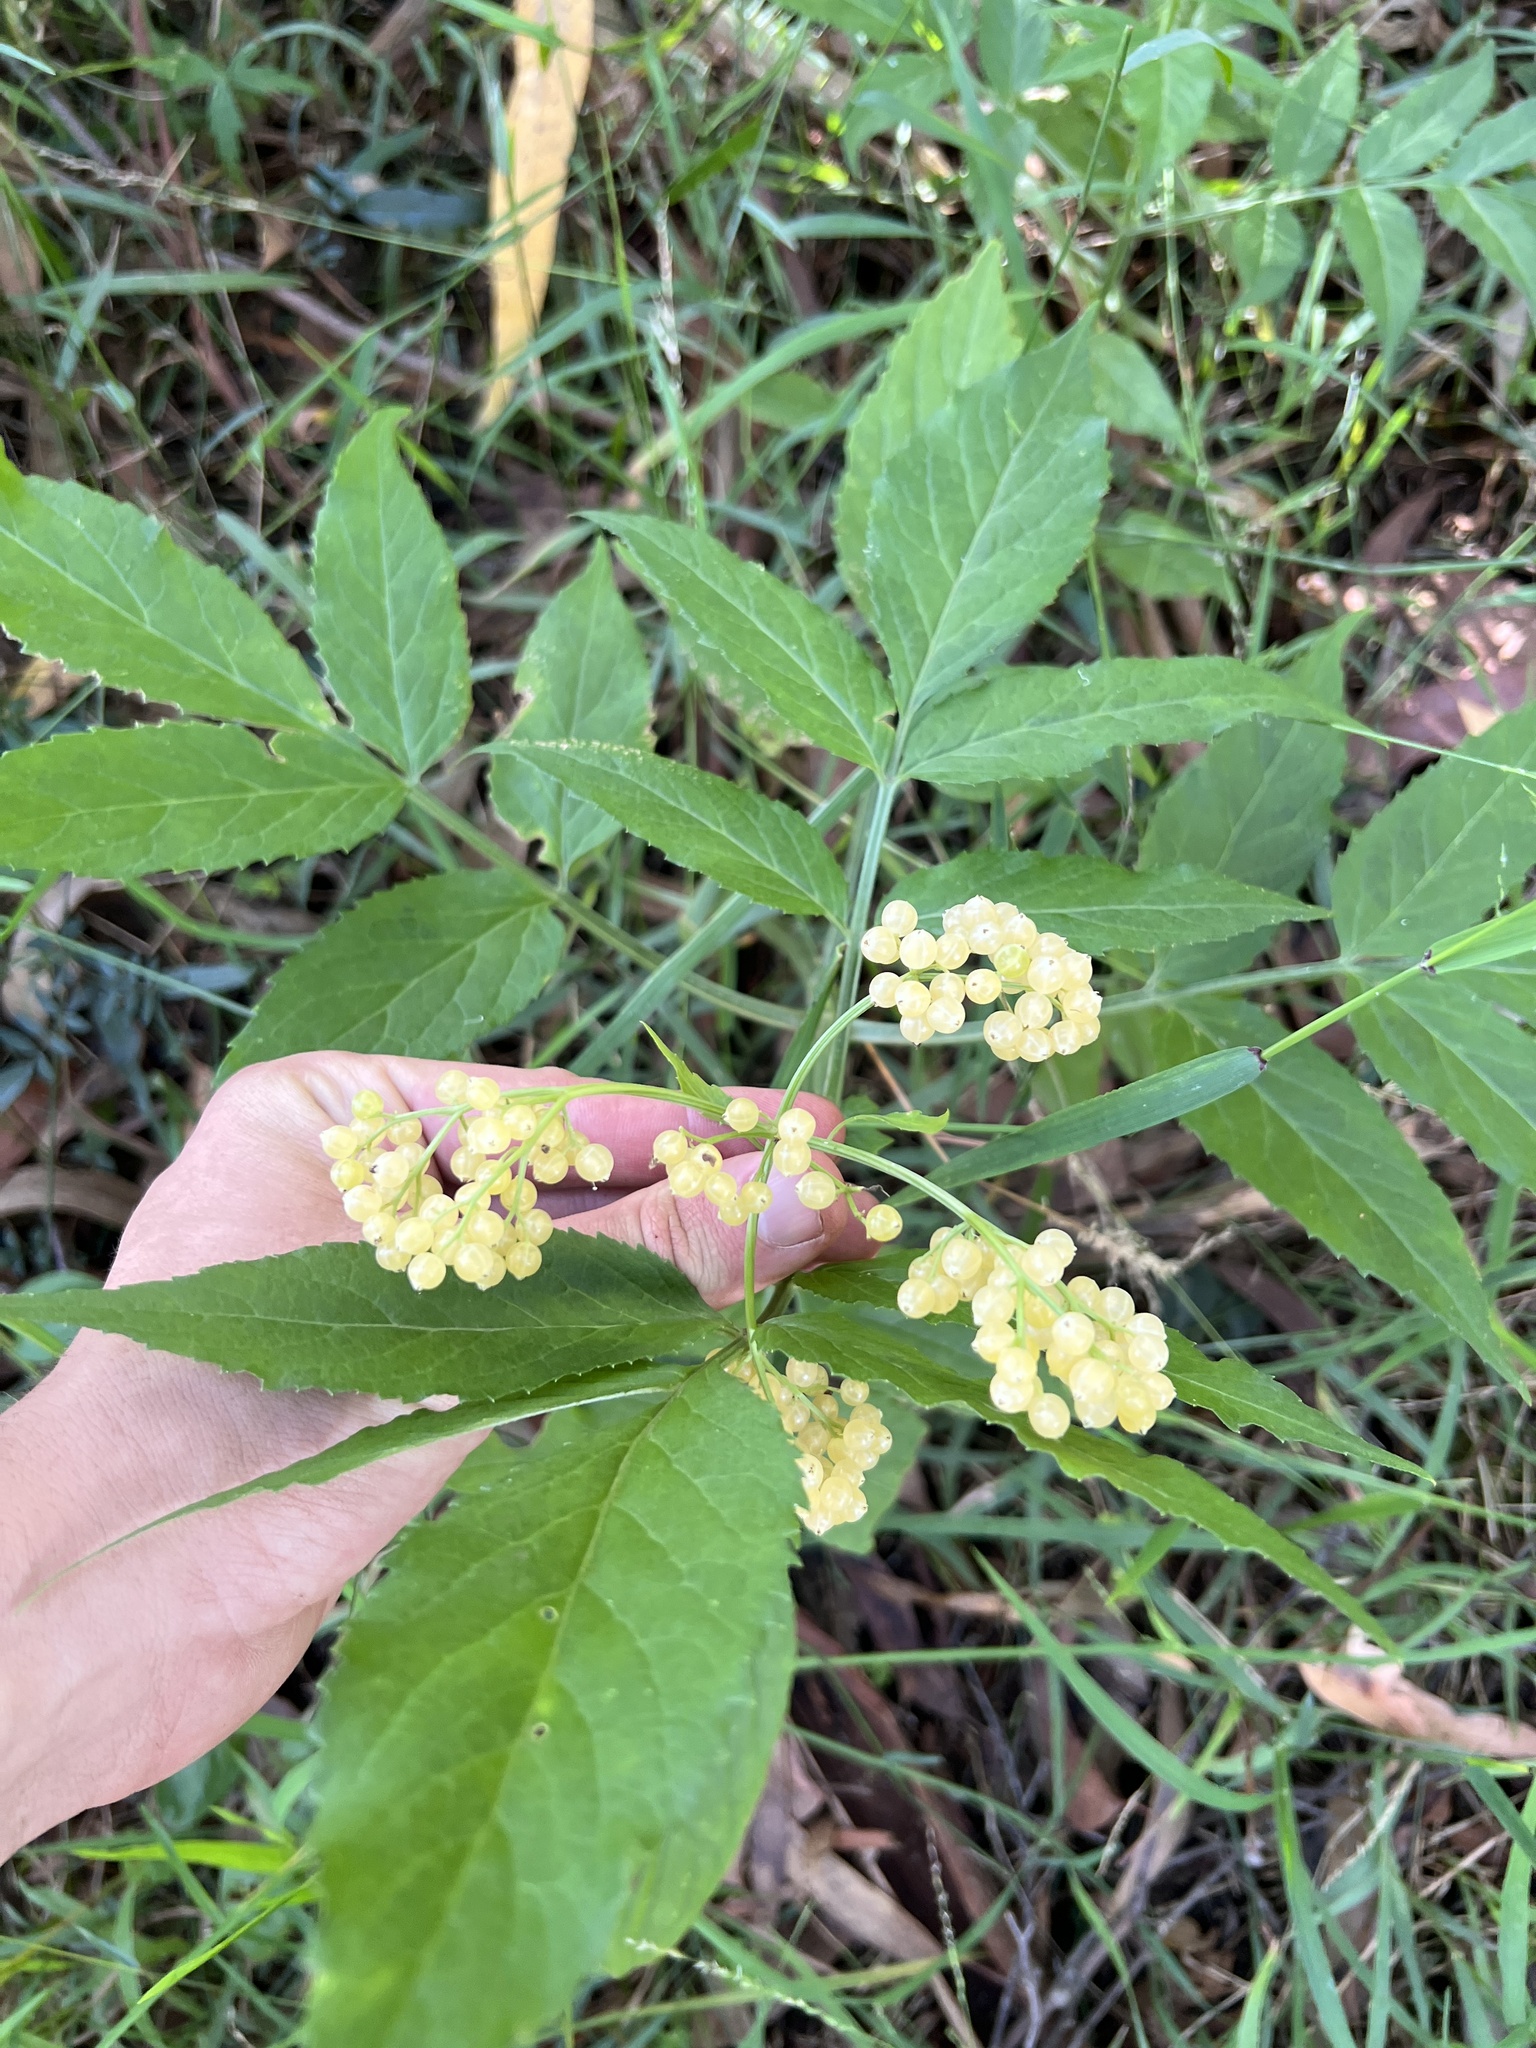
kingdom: Plantae
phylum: Tracheophyta
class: Magnoliopsida
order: Dipsacales
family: Viburnaceae
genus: Sambucus
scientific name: Sambucus gaudichaudiana
